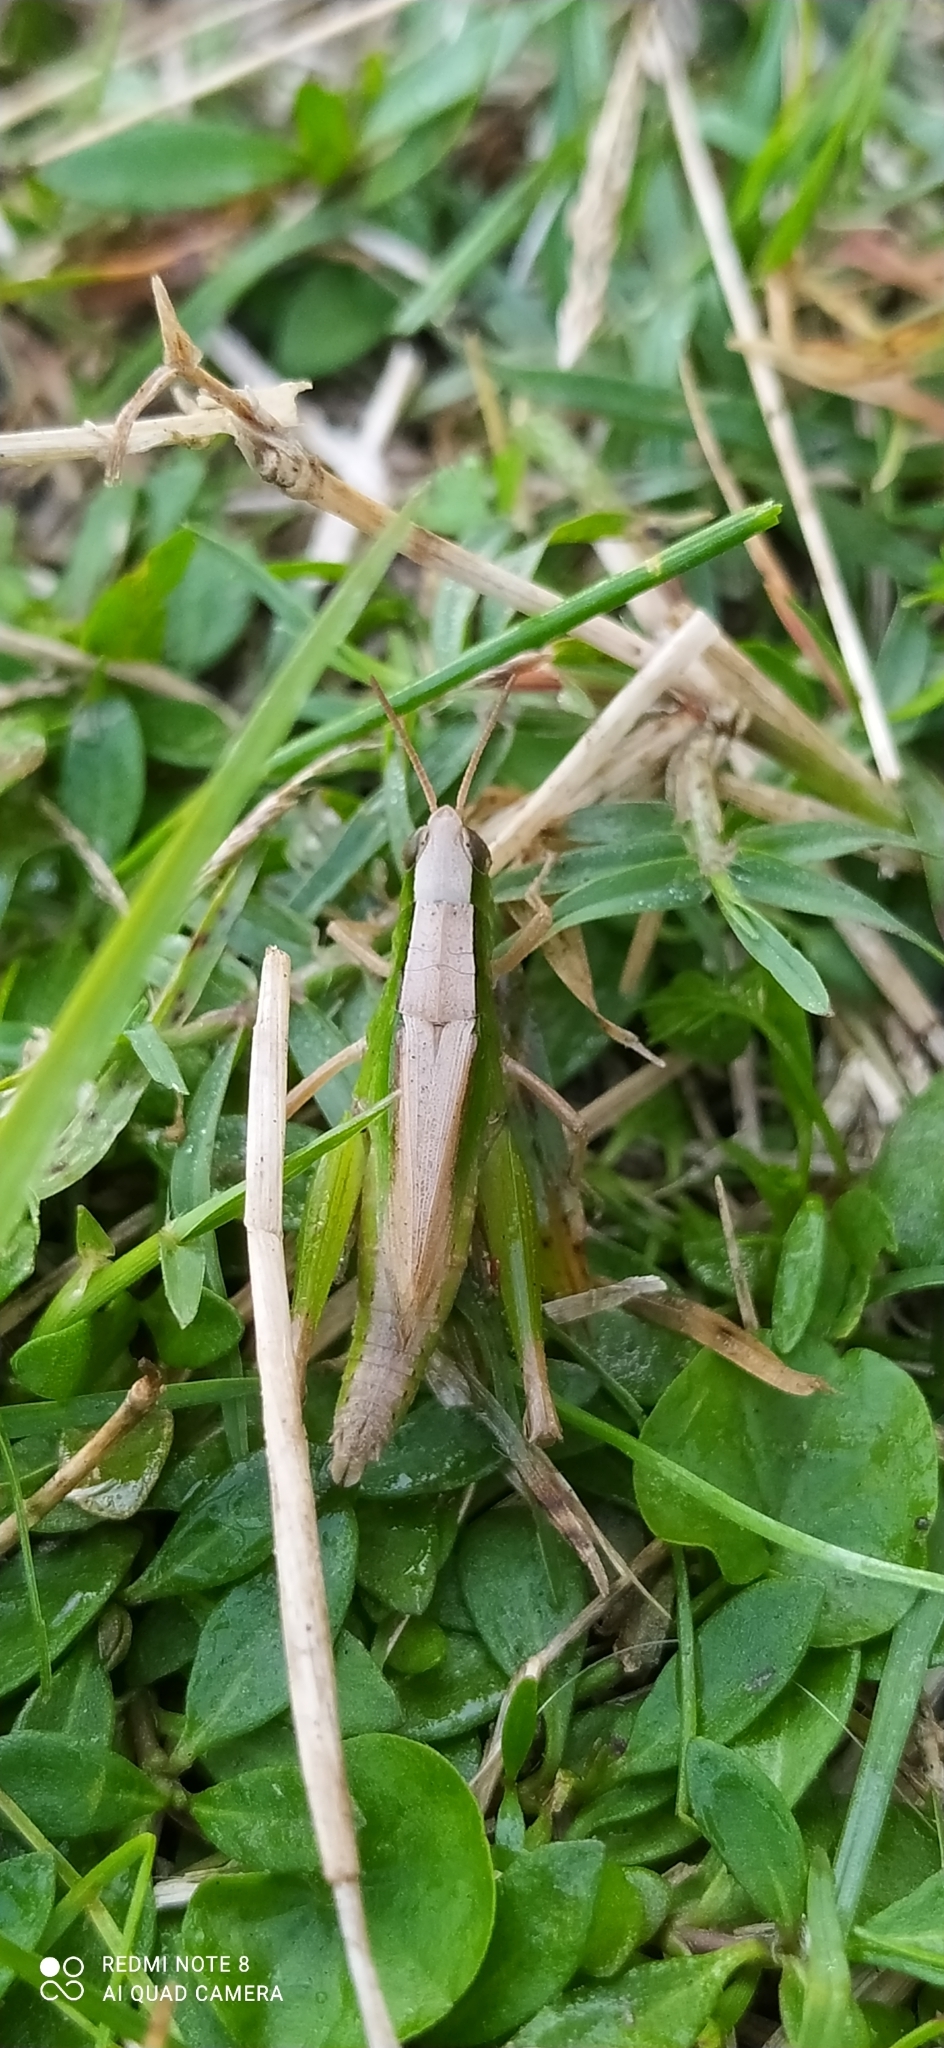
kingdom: Animalia
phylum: Arthropoda
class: Insecta
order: Orthoptera
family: Acrididae
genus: Dichromorpha
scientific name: Dichromorpha australis
